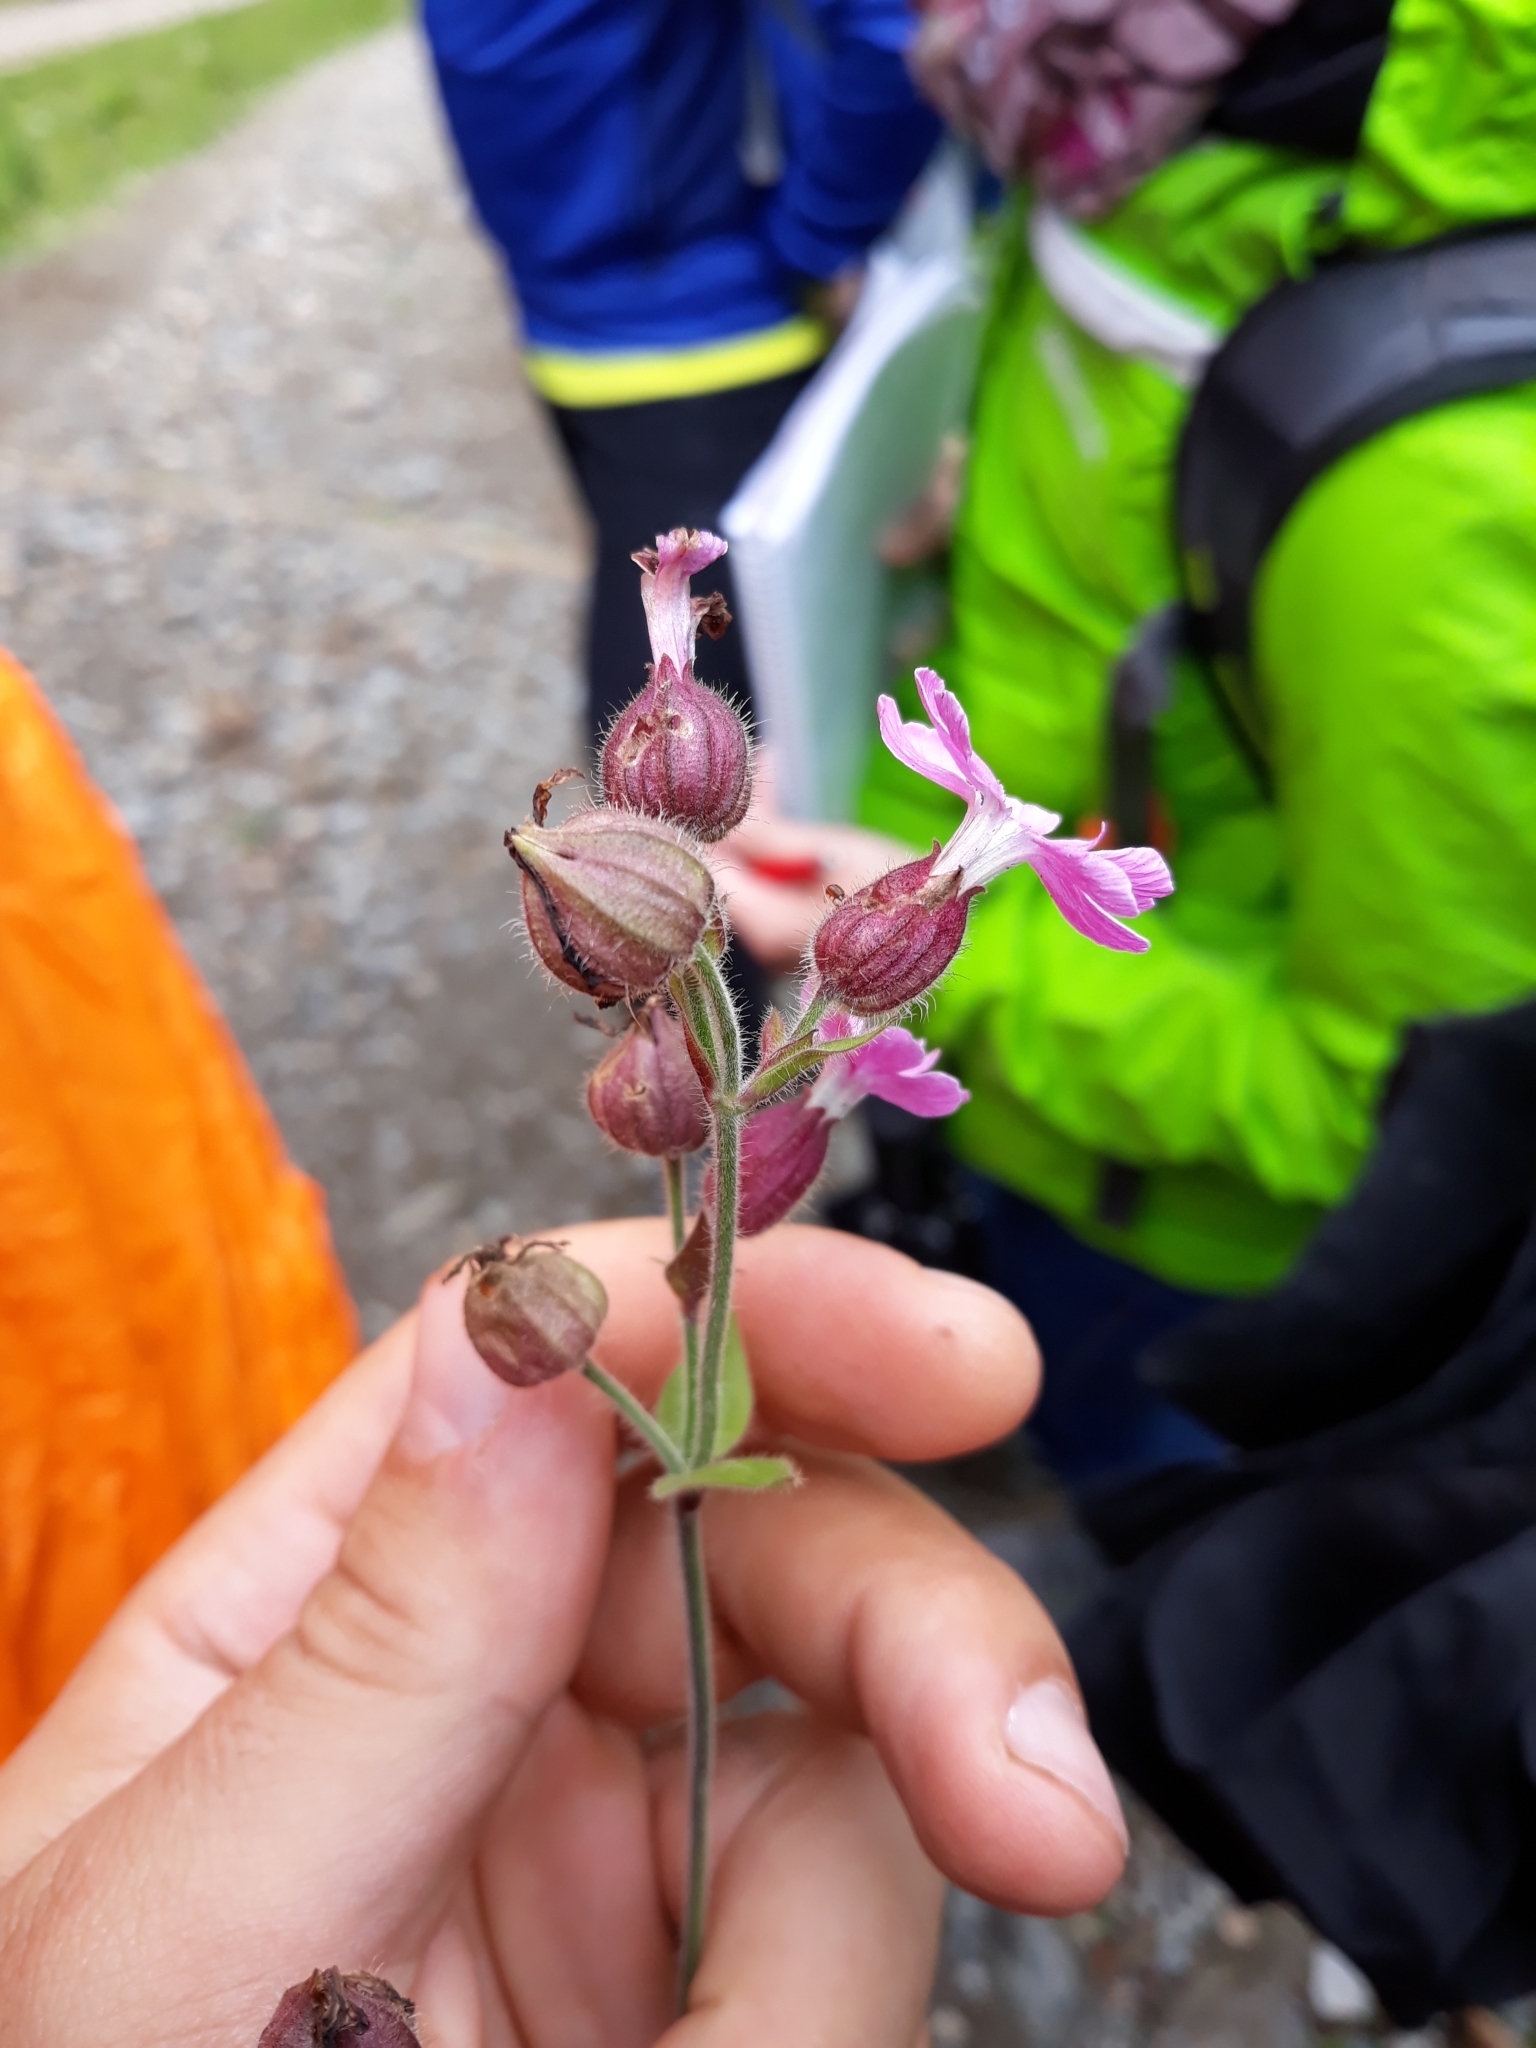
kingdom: Plantae
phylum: Tracheophyta
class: Magnoliopsida
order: Caryophyllales
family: Caryophyllaceae
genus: Silene
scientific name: Silene dioica
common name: Red campion
